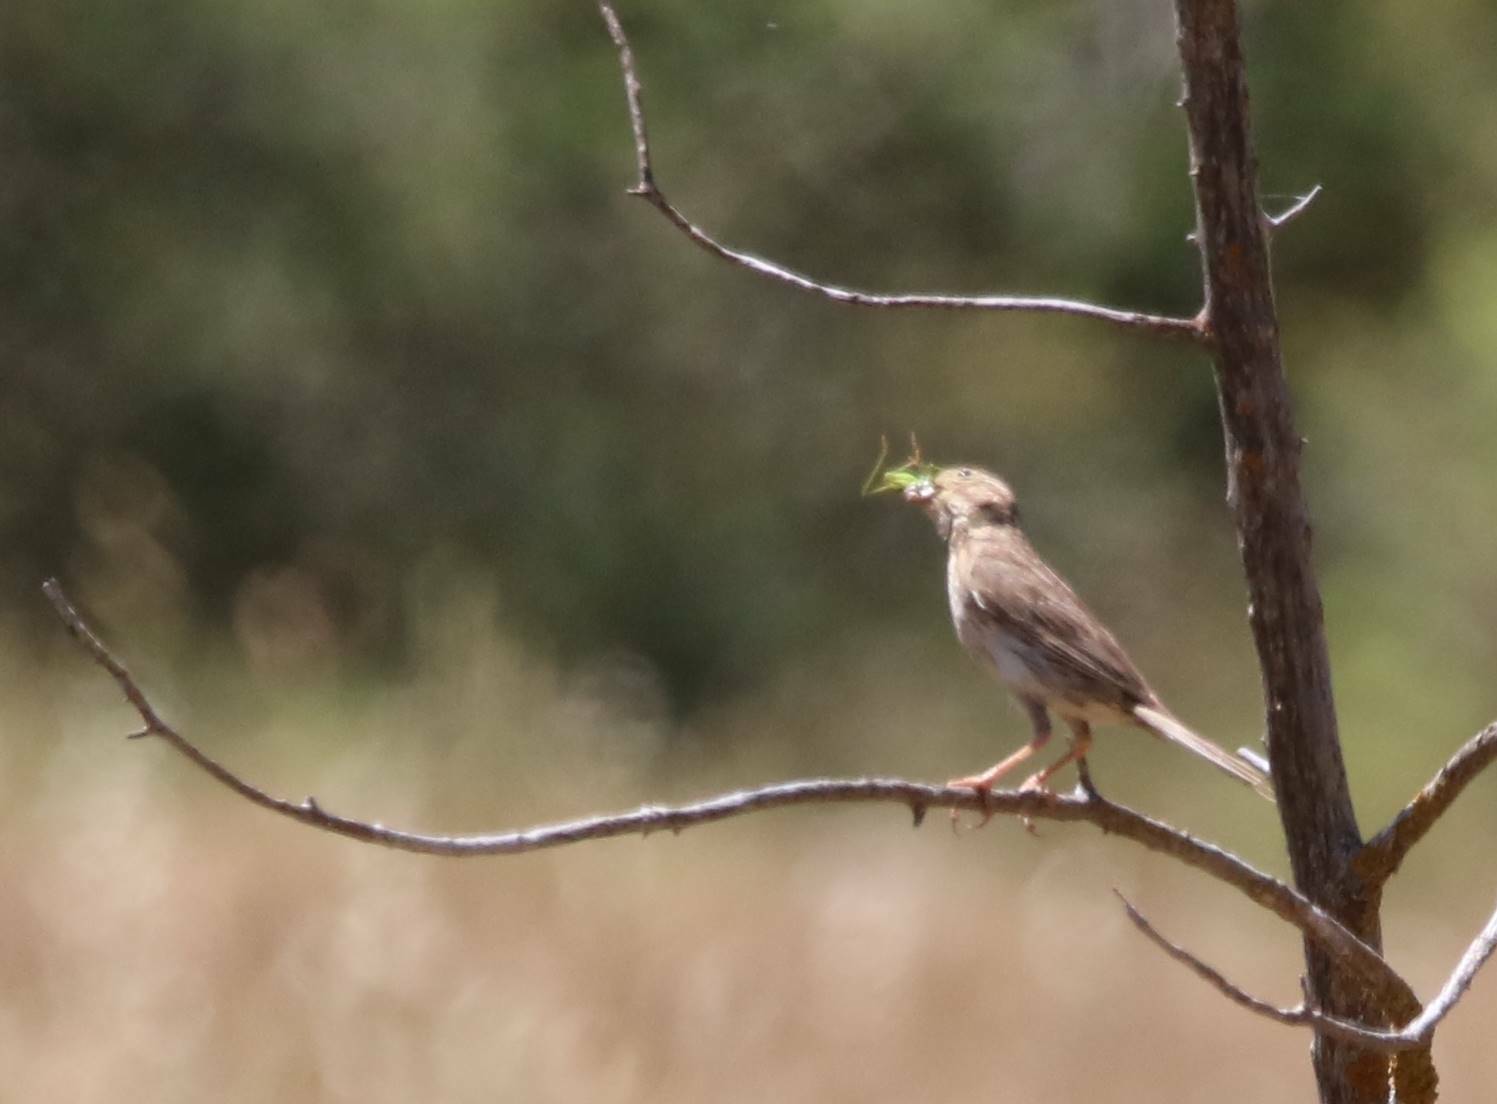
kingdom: Animalia
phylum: Chordata
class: Aves
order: Passeriformes
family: Emberizidae
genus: Emberiza
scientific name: Emberiza calandra
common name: Corn bunting
